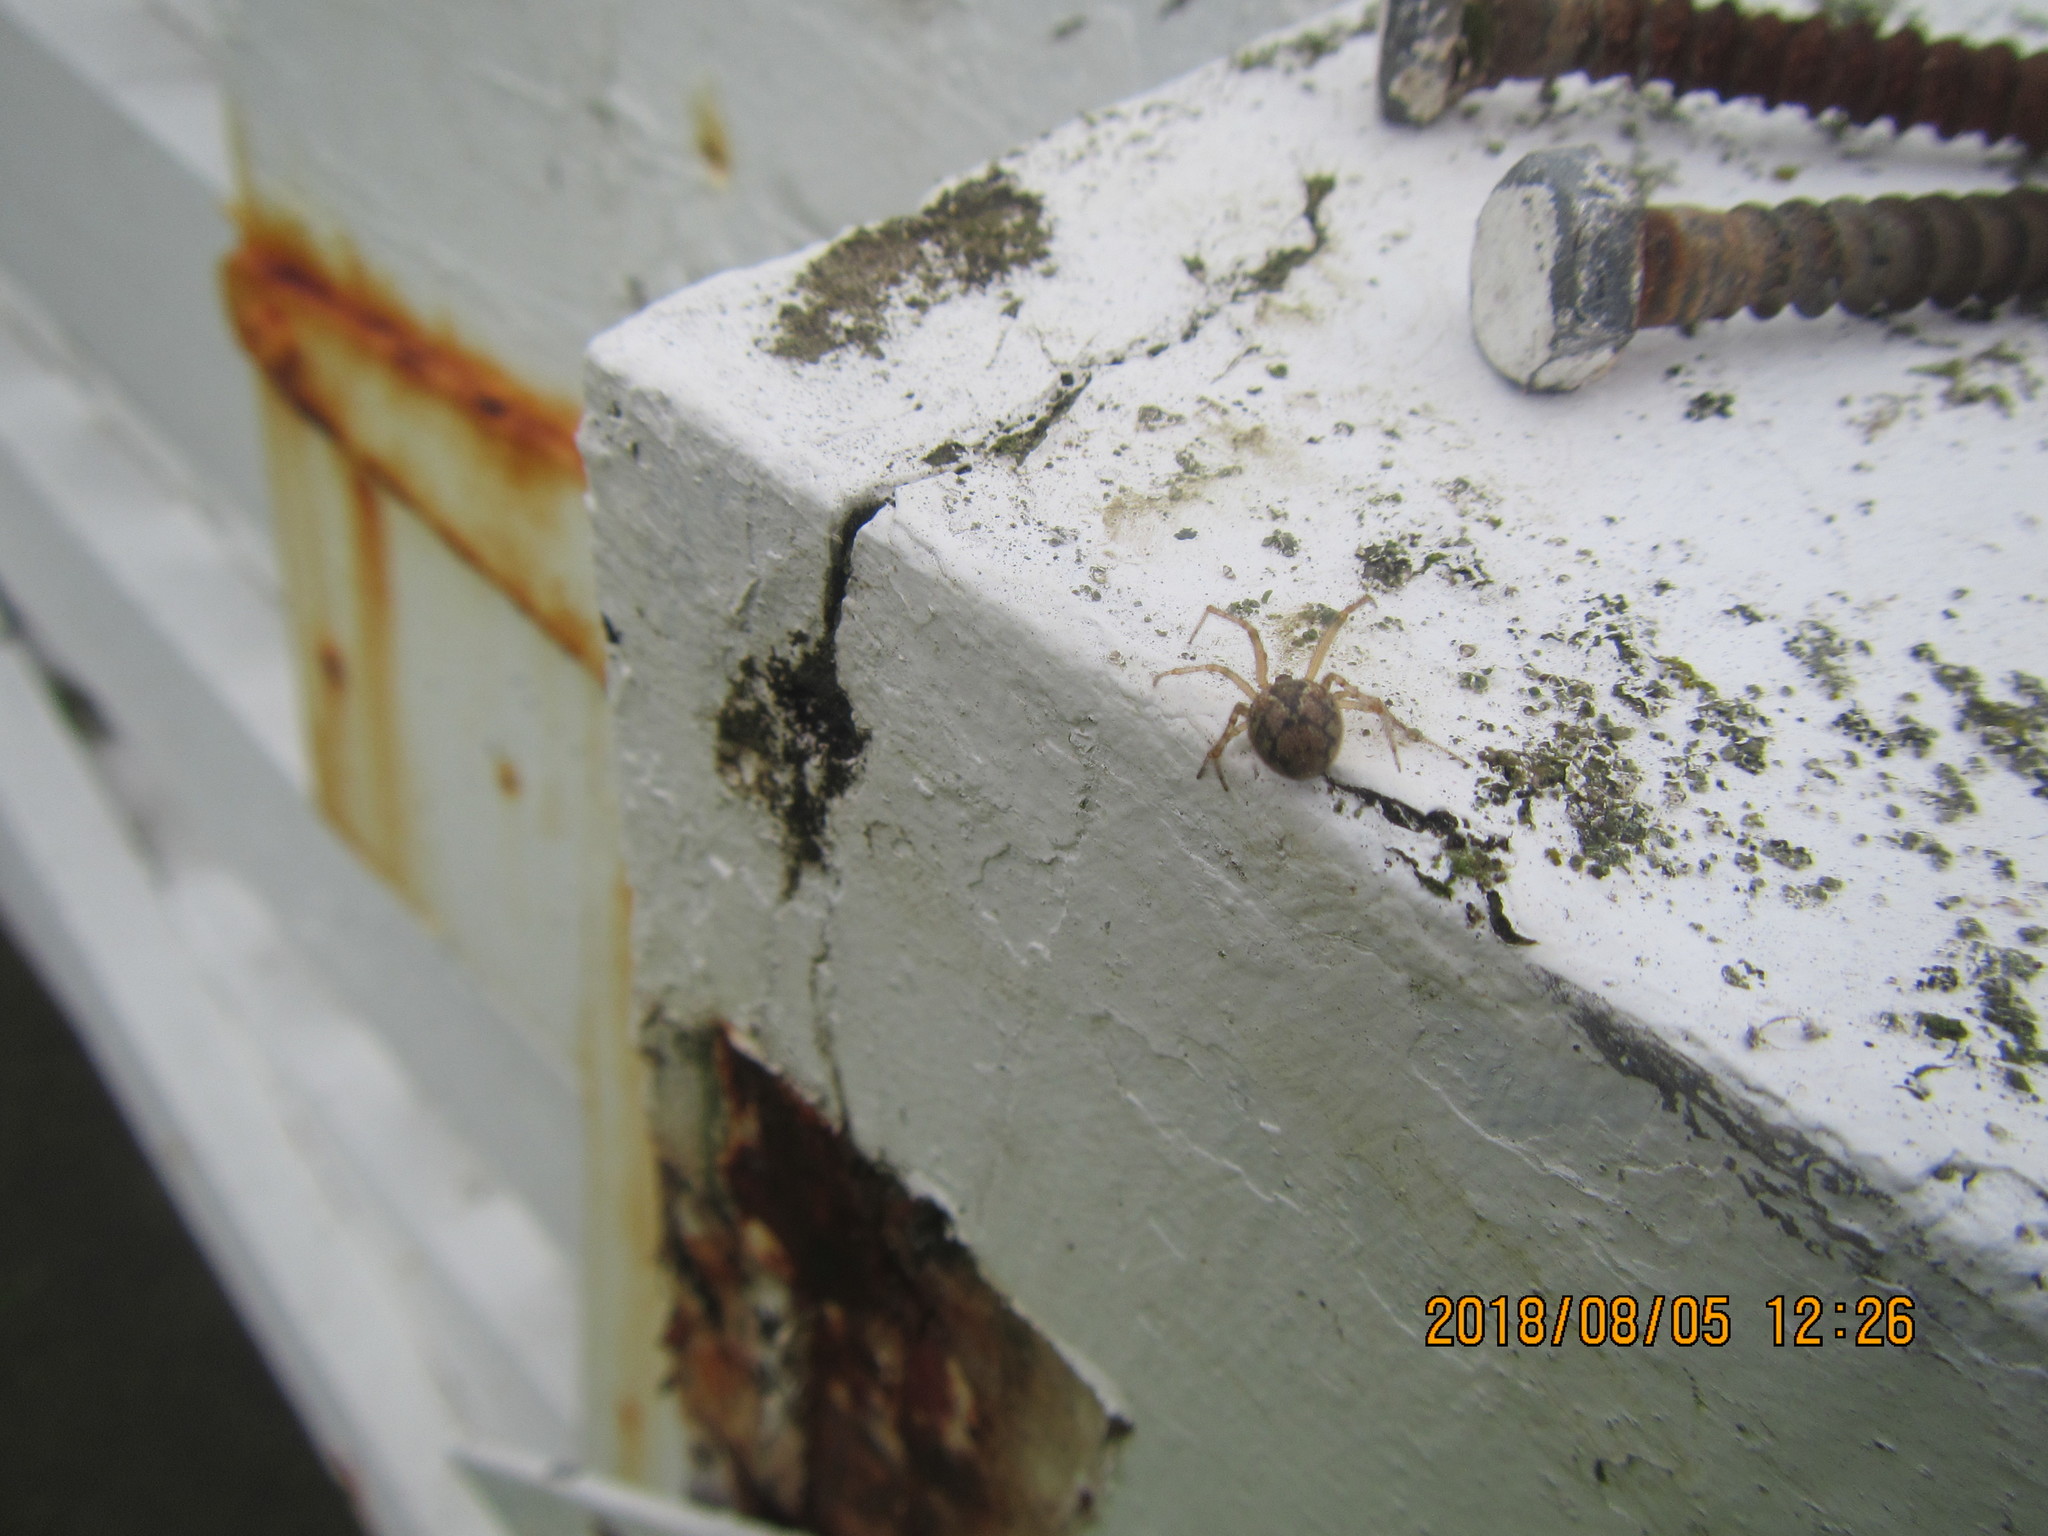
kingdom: Animalia
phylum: Arthropoda
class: Arachnida
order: Araneae
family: Theridiidae
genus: Cryptachaea
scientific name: Cryptachaea veruculata
